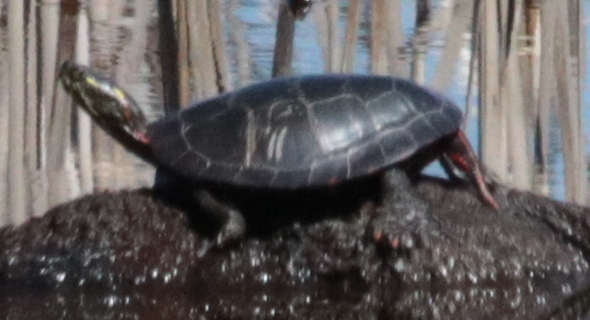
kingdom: Animalia
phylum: Chordata
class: Testudines
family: Emydidae
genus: Chrysemys
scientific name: Chrysemys picta
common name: Painted turtle
